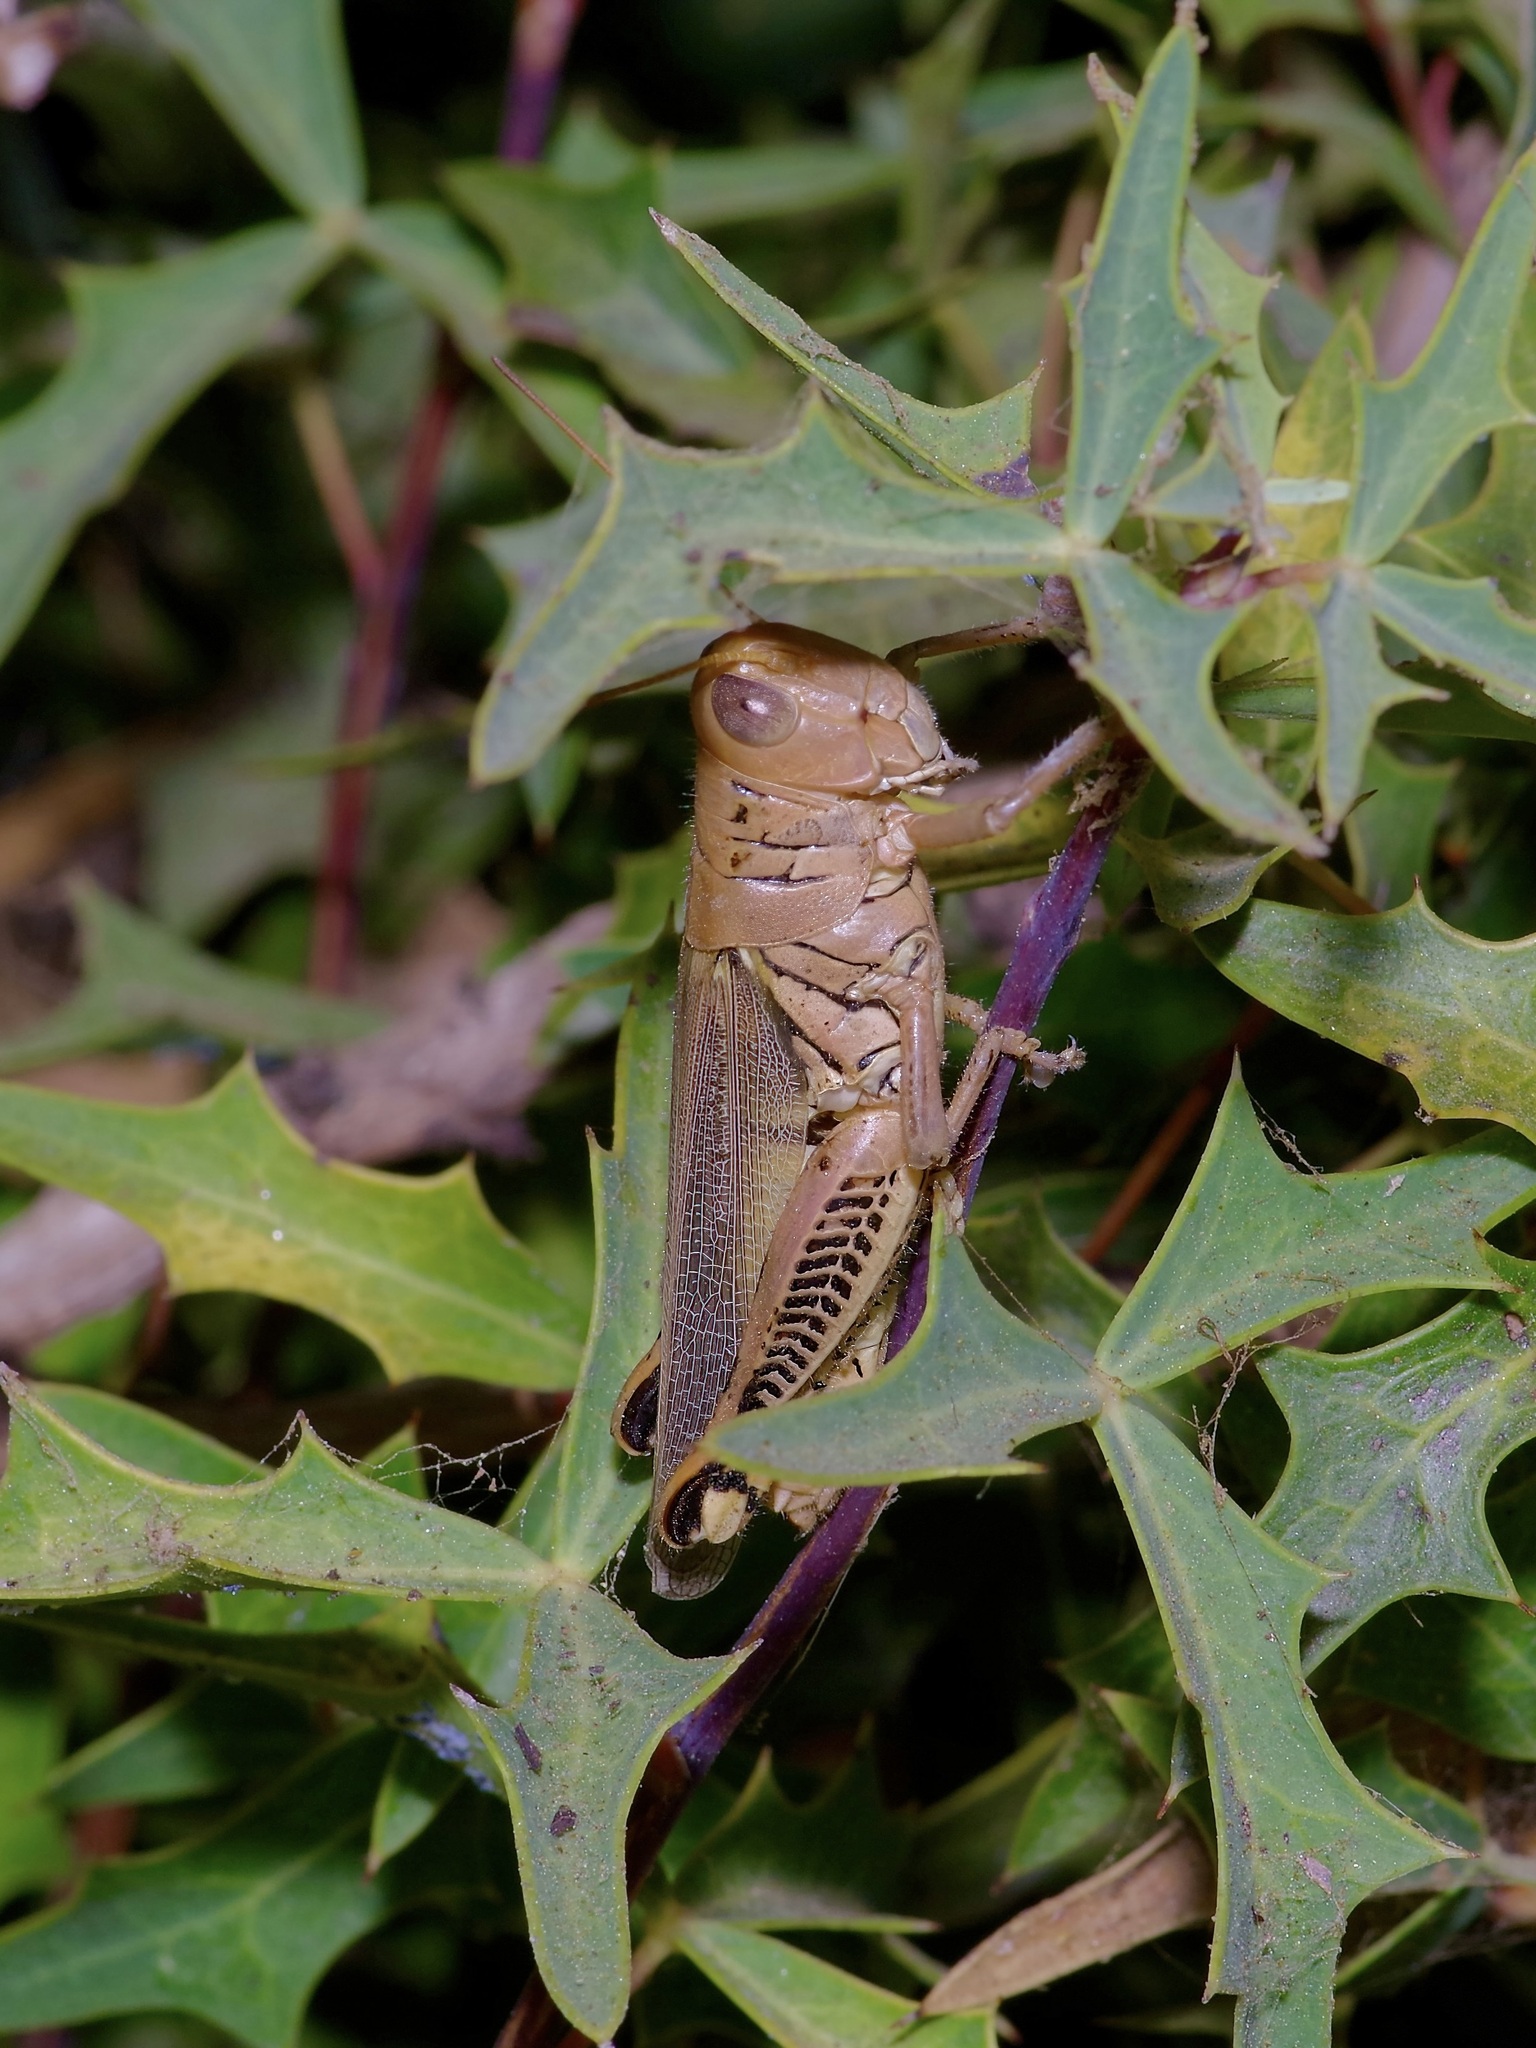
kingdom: Animalia
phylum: Arthropoda
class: Insecta
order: Orthoptera
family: Acrididae
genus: Melanoplus
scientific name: Melanoplus differentialis
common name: Differential grasshopper
